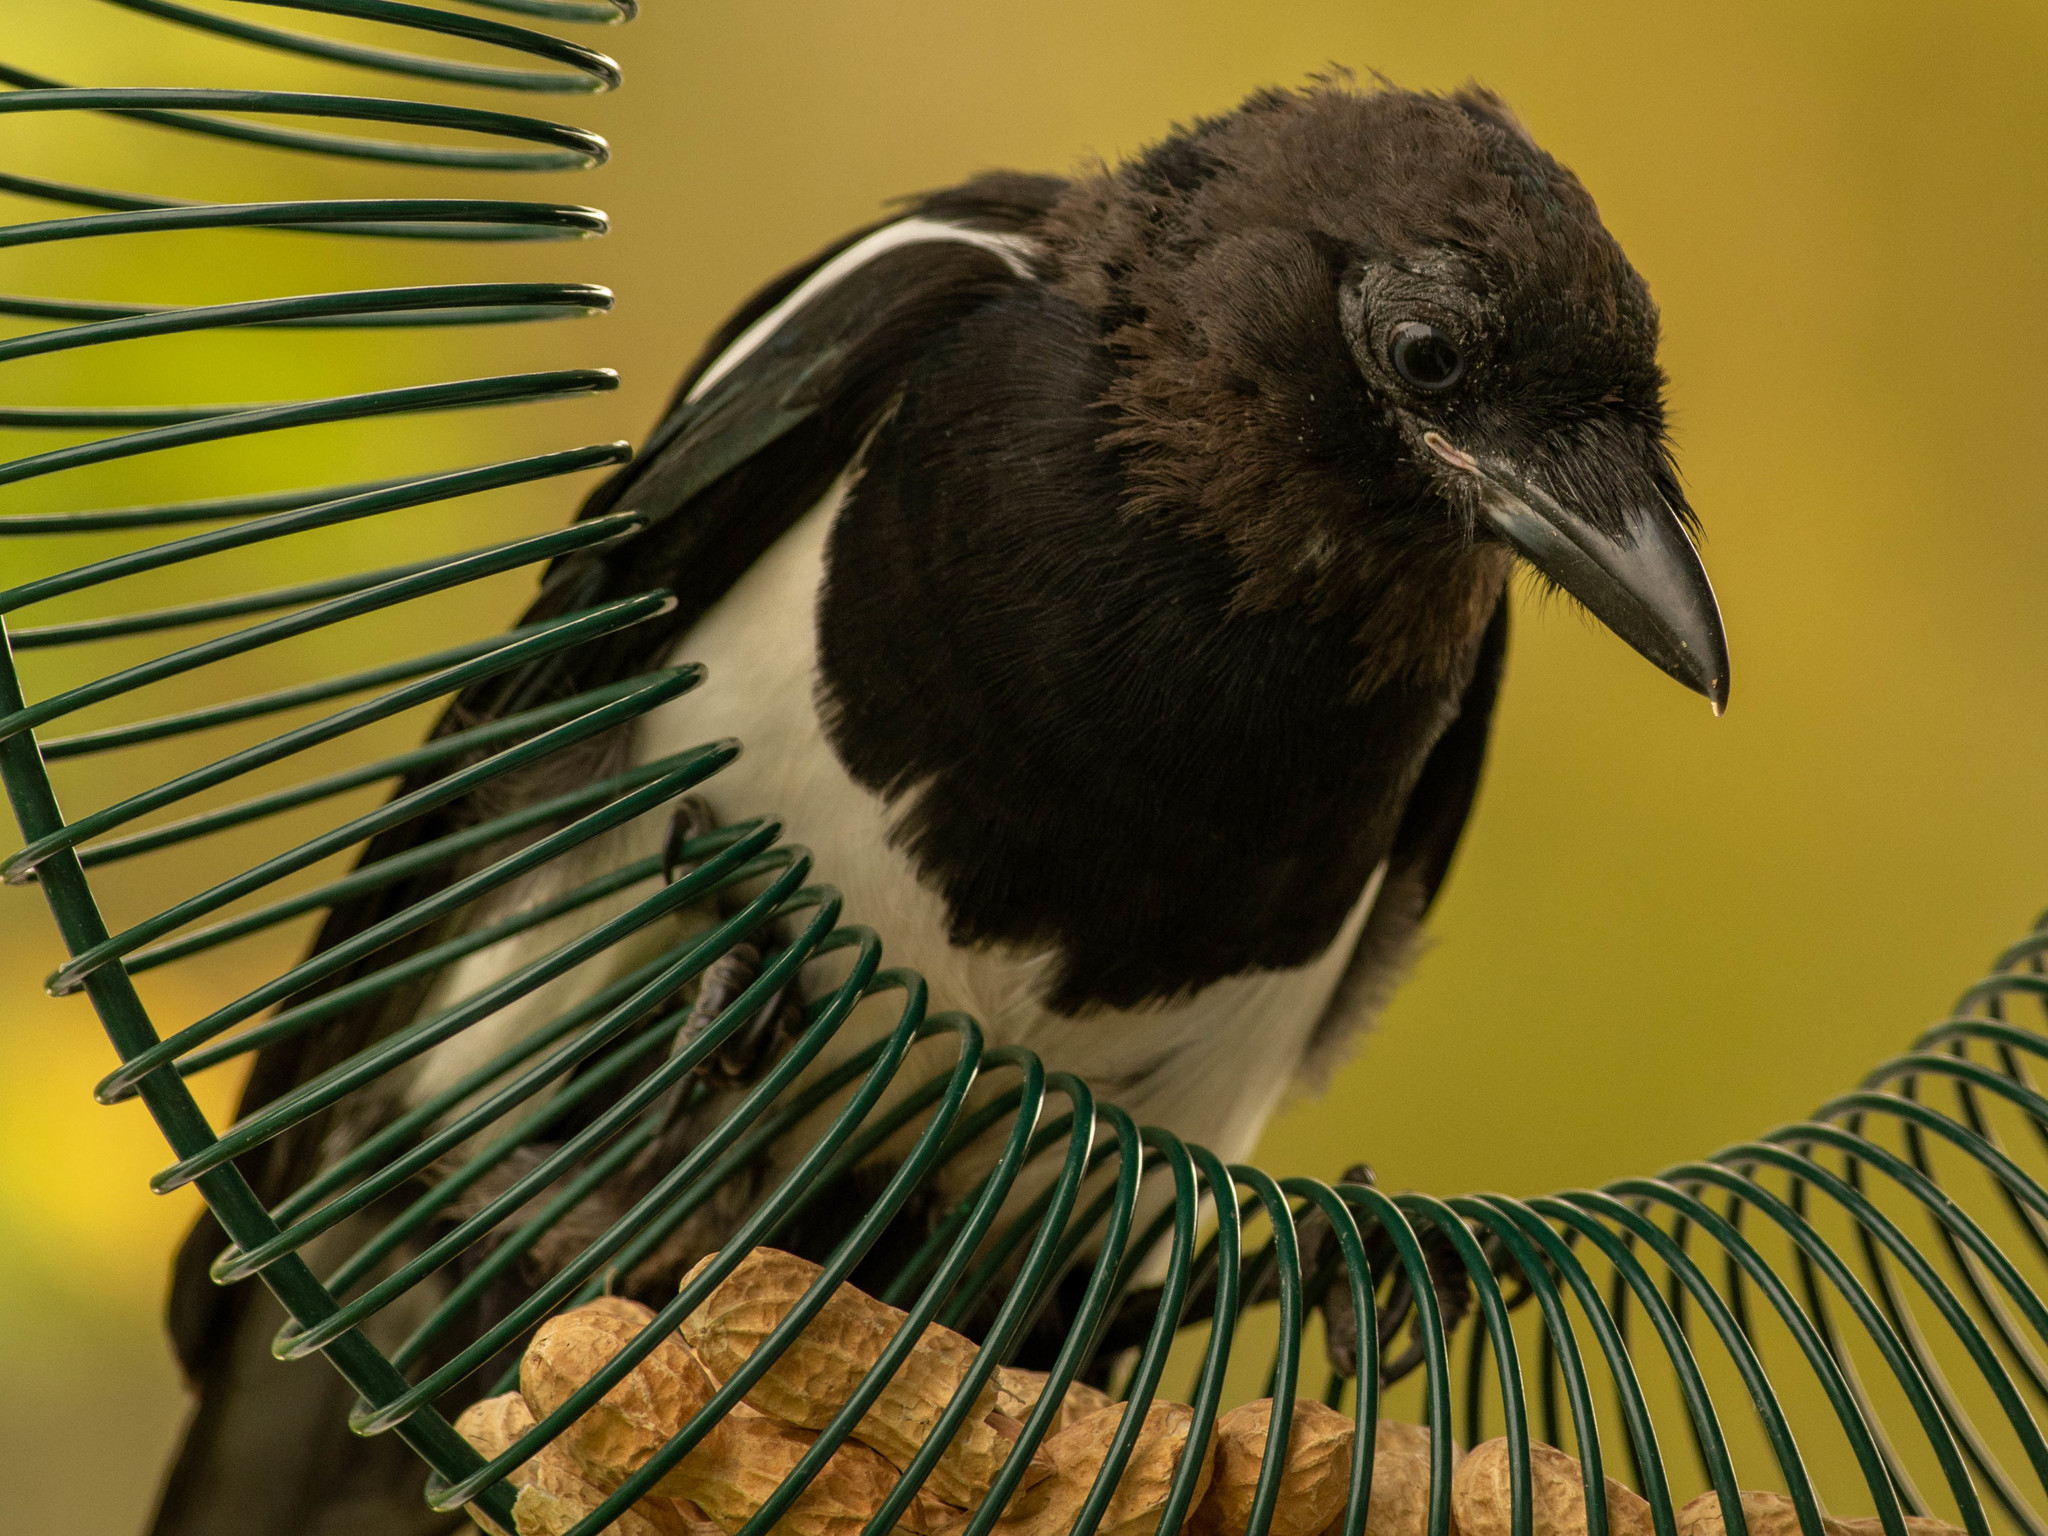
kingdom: Animalia
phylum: Chordata
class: Aves
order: Passeriformes
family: Corvidae
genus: Pica
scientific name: Pica hudsonia
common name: Black-billed magpie
